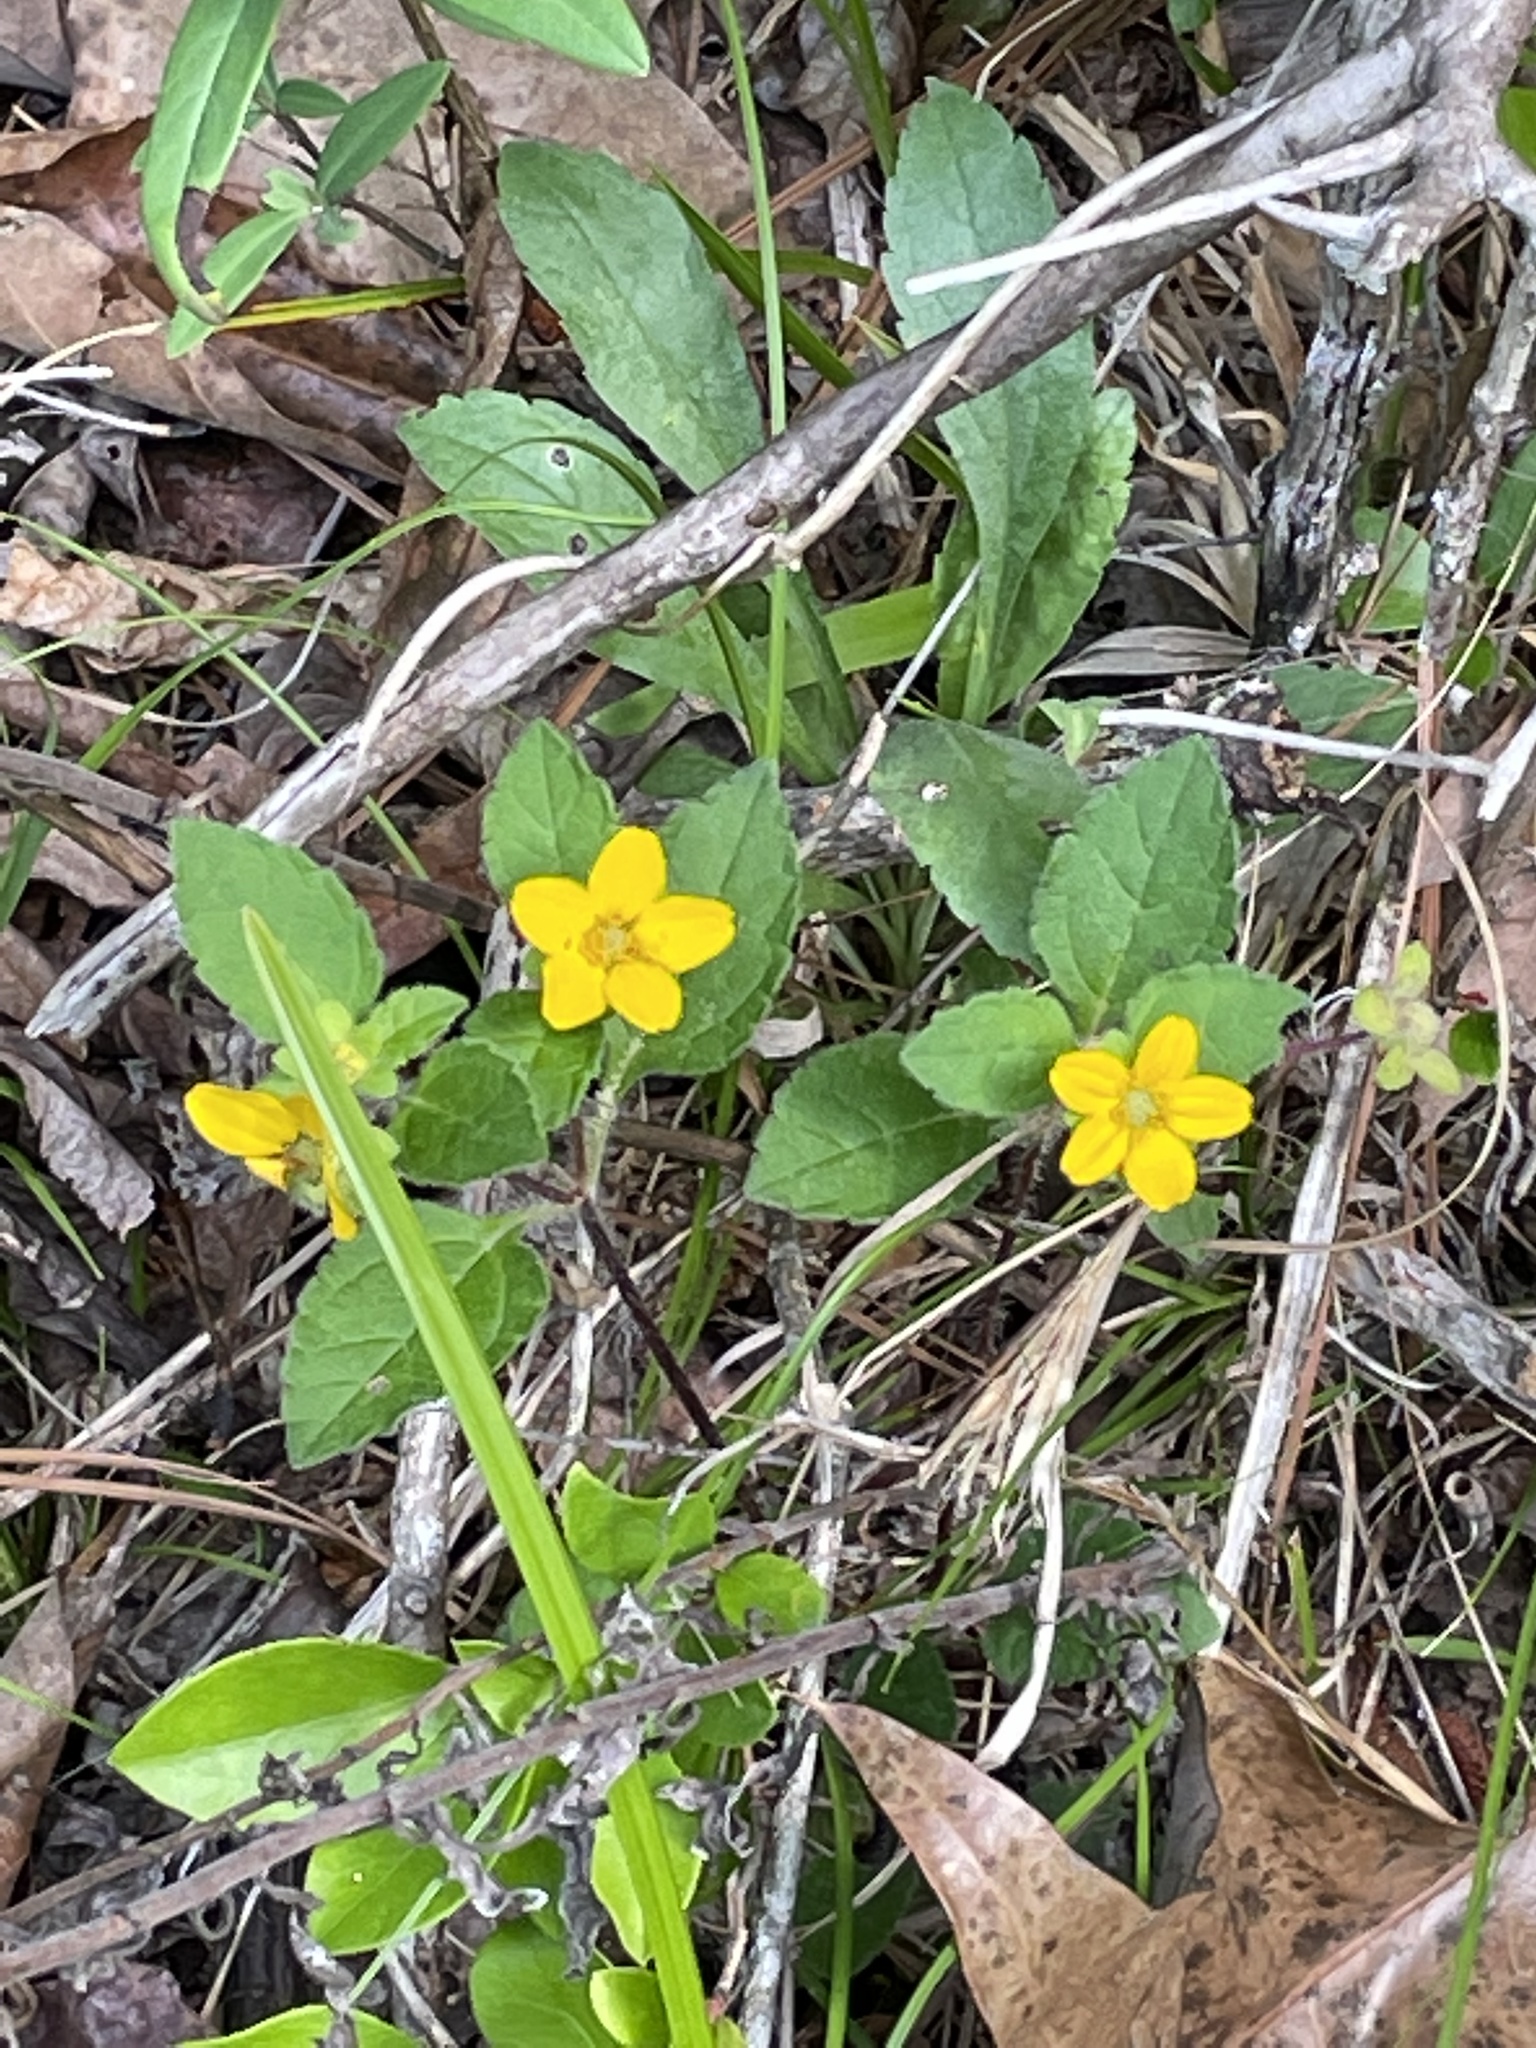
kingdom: Plantae
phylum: Tracheophyta
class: Magnoliopsida
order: Asterales
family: Asteraceae
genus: Chrysogonum
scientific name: Chrysogonum virginianum
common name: Golden-knee
